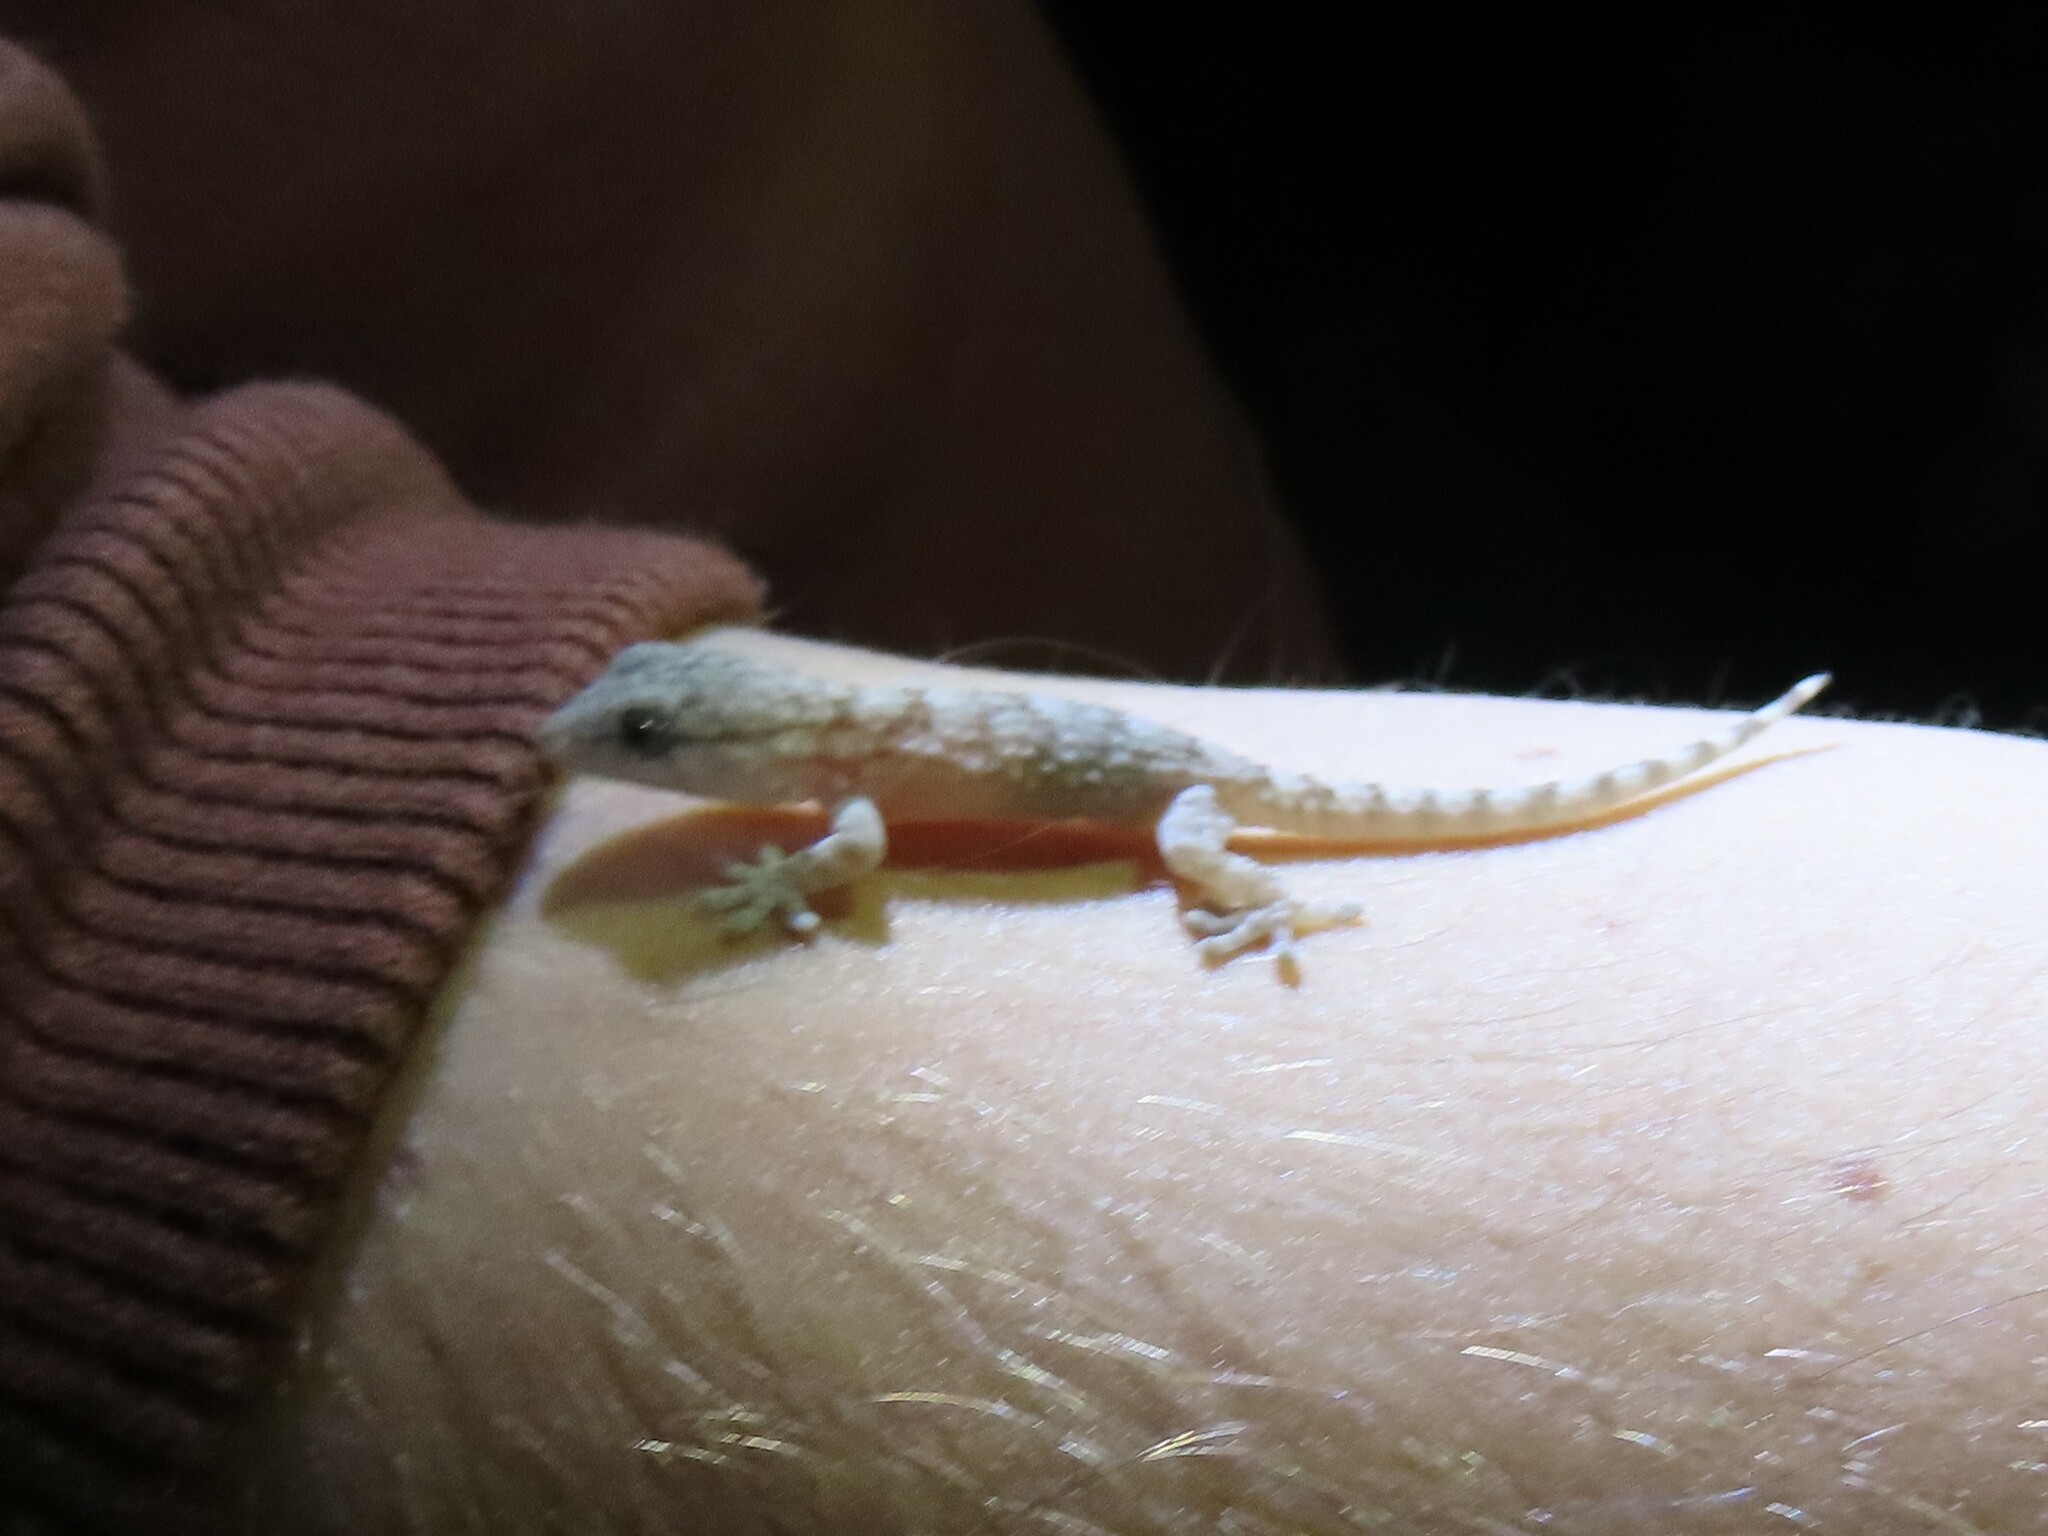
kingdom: Animalia
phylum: Chordata
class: Squamata
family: Phyllodactylidae
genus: Tarentola
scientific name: Tarentola mauritanica
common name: Moorish gecko
